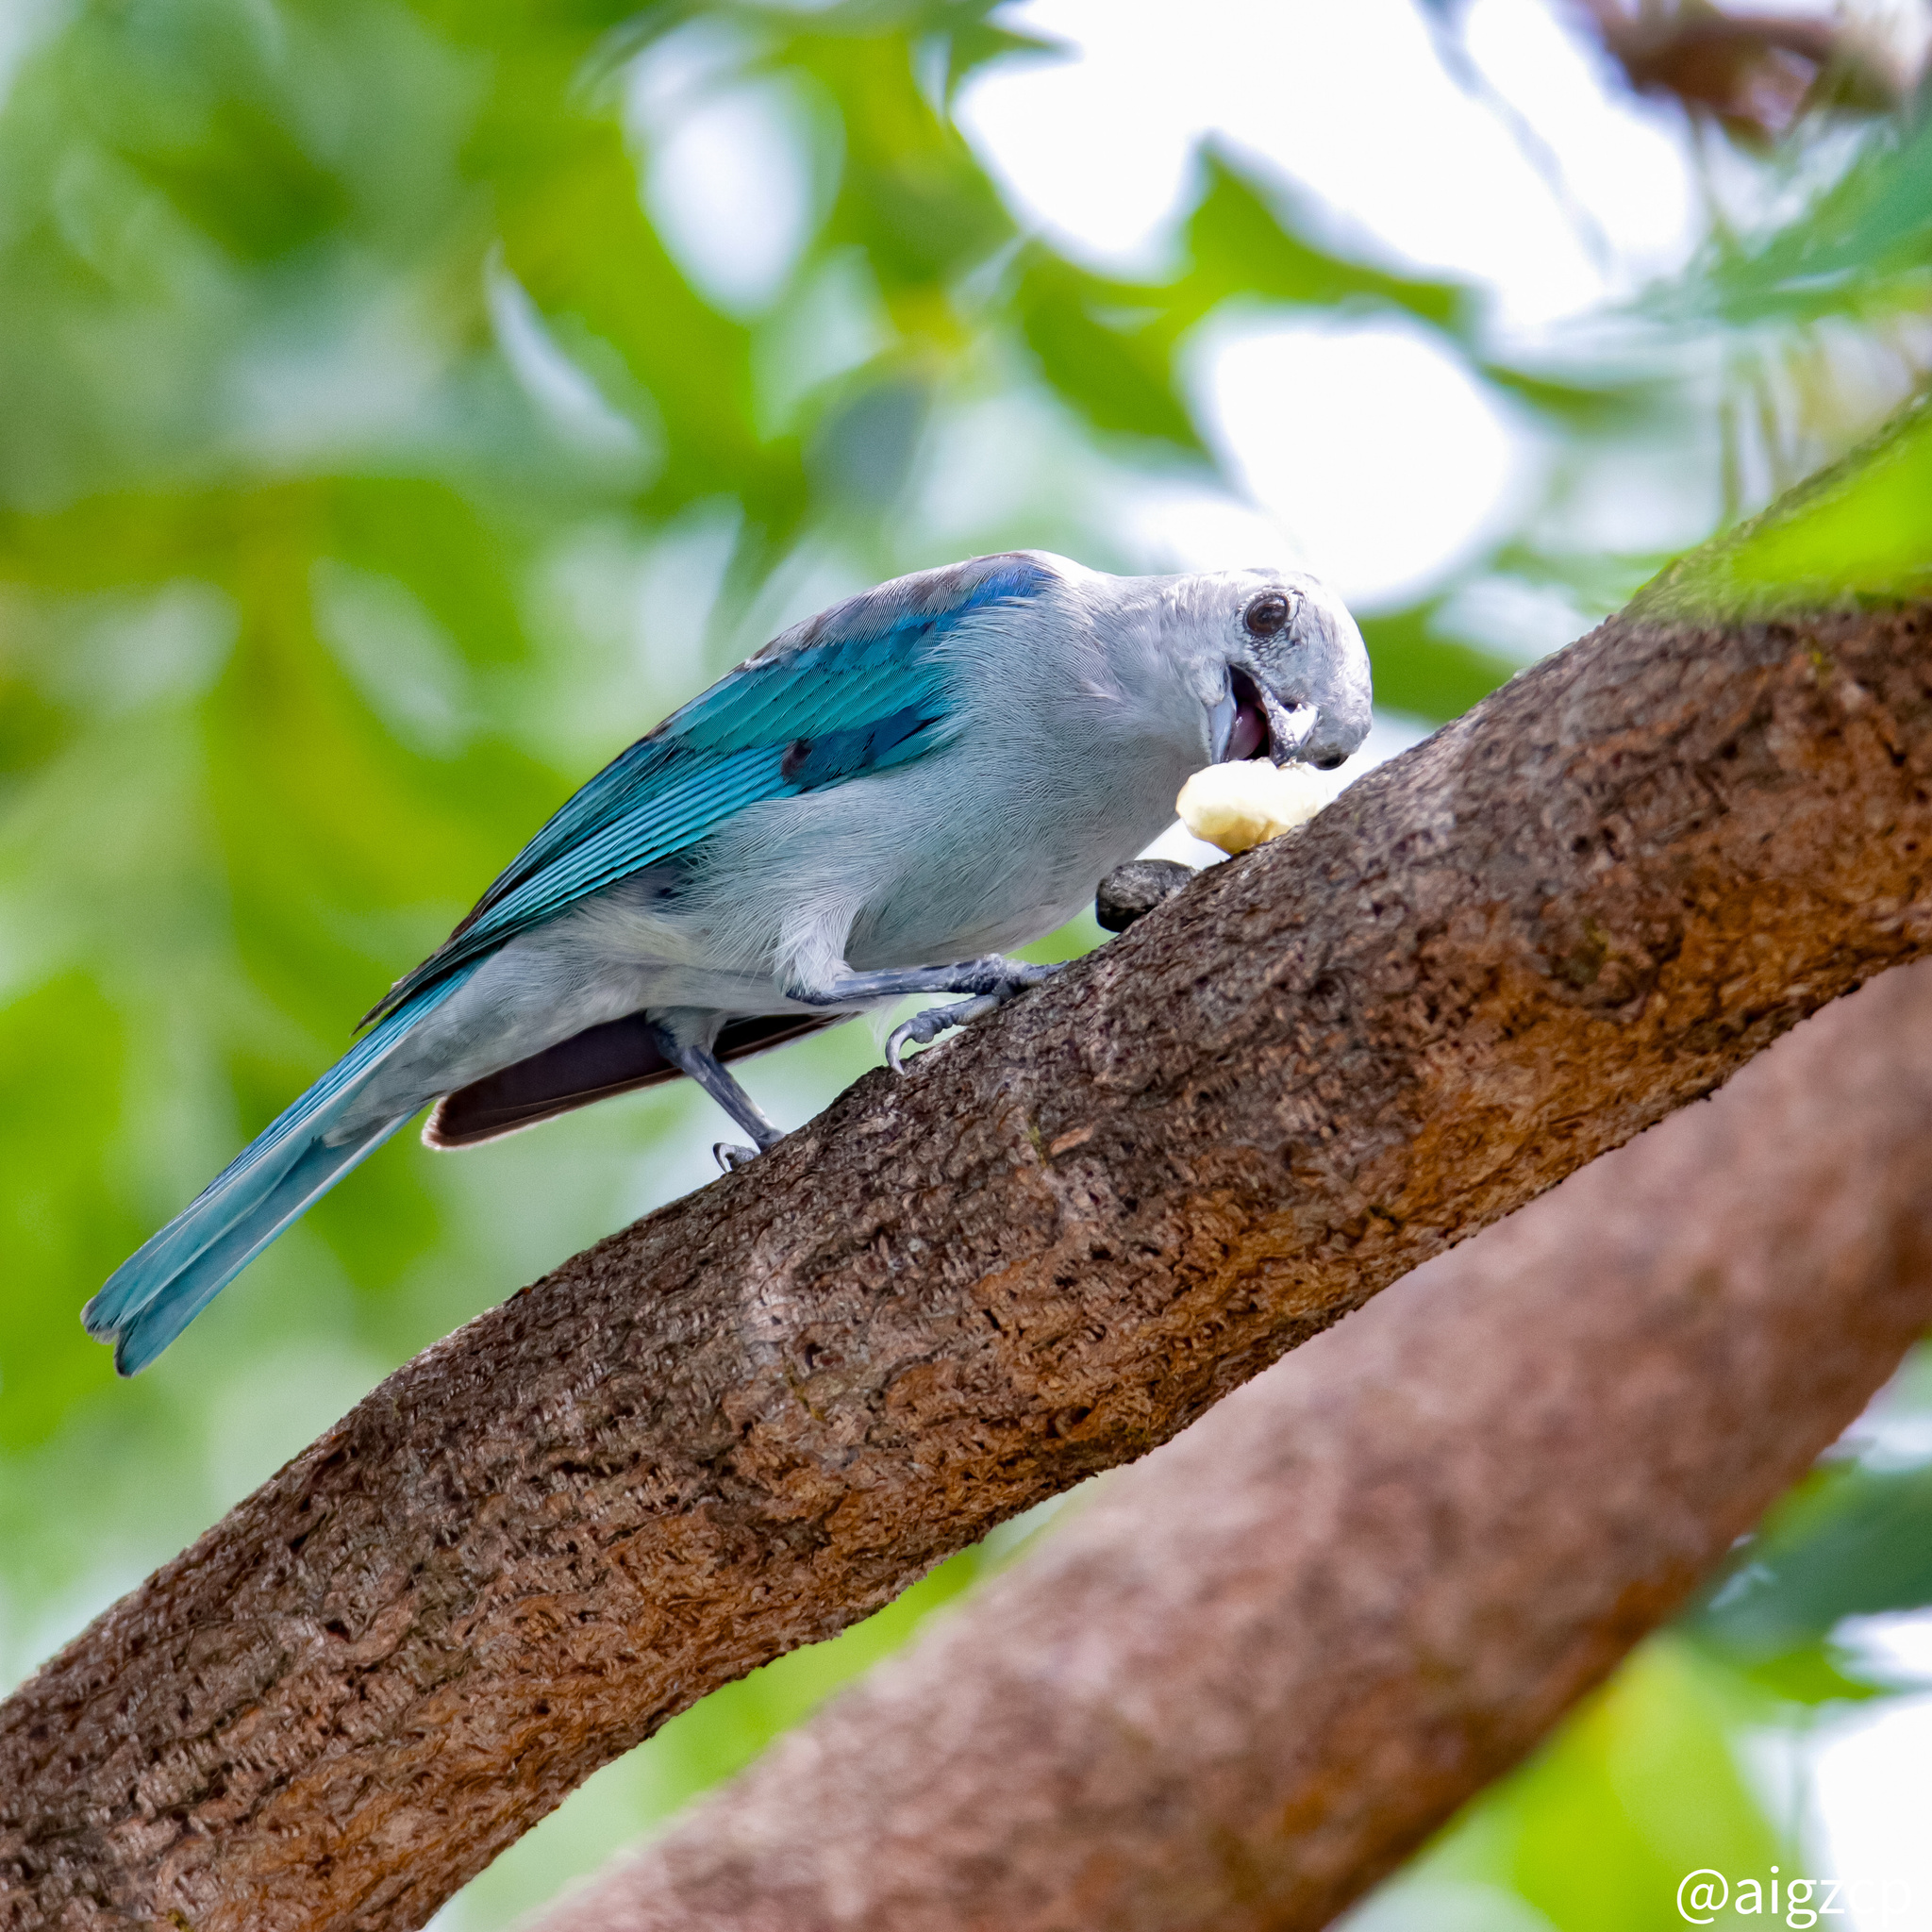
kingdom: Animalia
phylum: Chordata
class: Aves
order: Passeriformes
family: Thraupidae
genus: Thraupis
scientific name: Thraupis episcopus
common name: Blue-grey tanager
